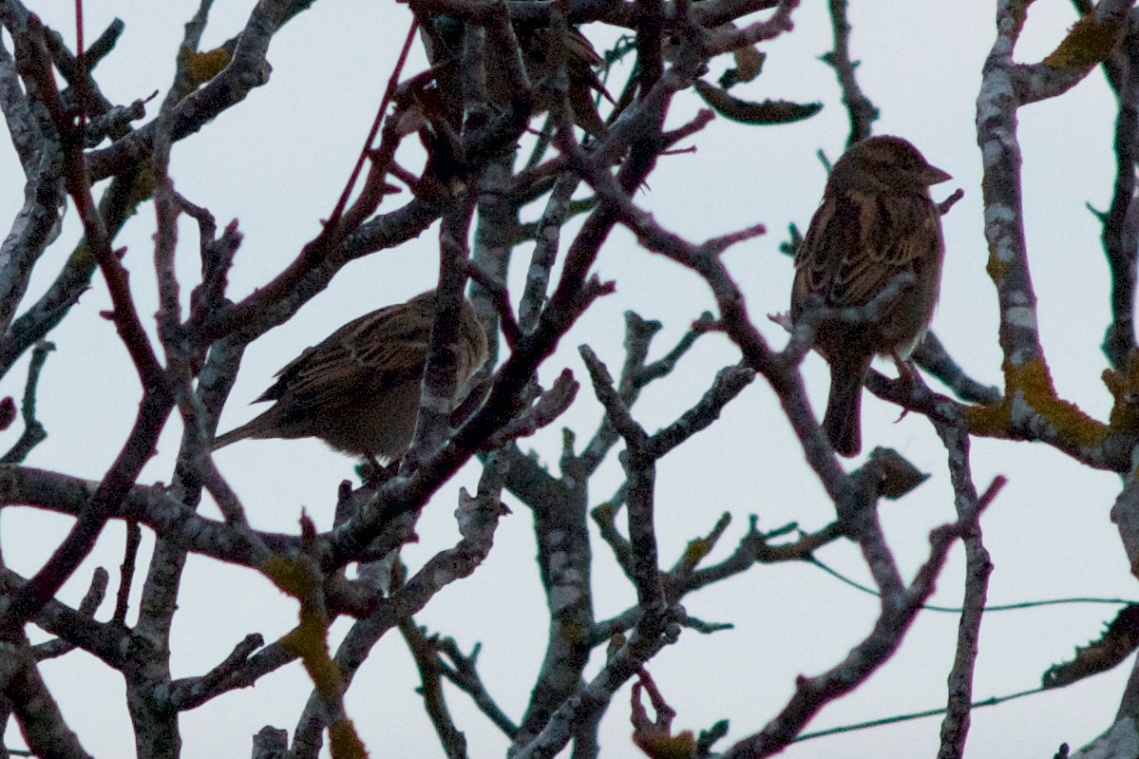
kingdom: Animalia
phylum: Chordata
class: Aves
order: Passeriformes
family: Passeridae
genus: Passer
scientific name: Passer domesticus
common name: House sparrow
